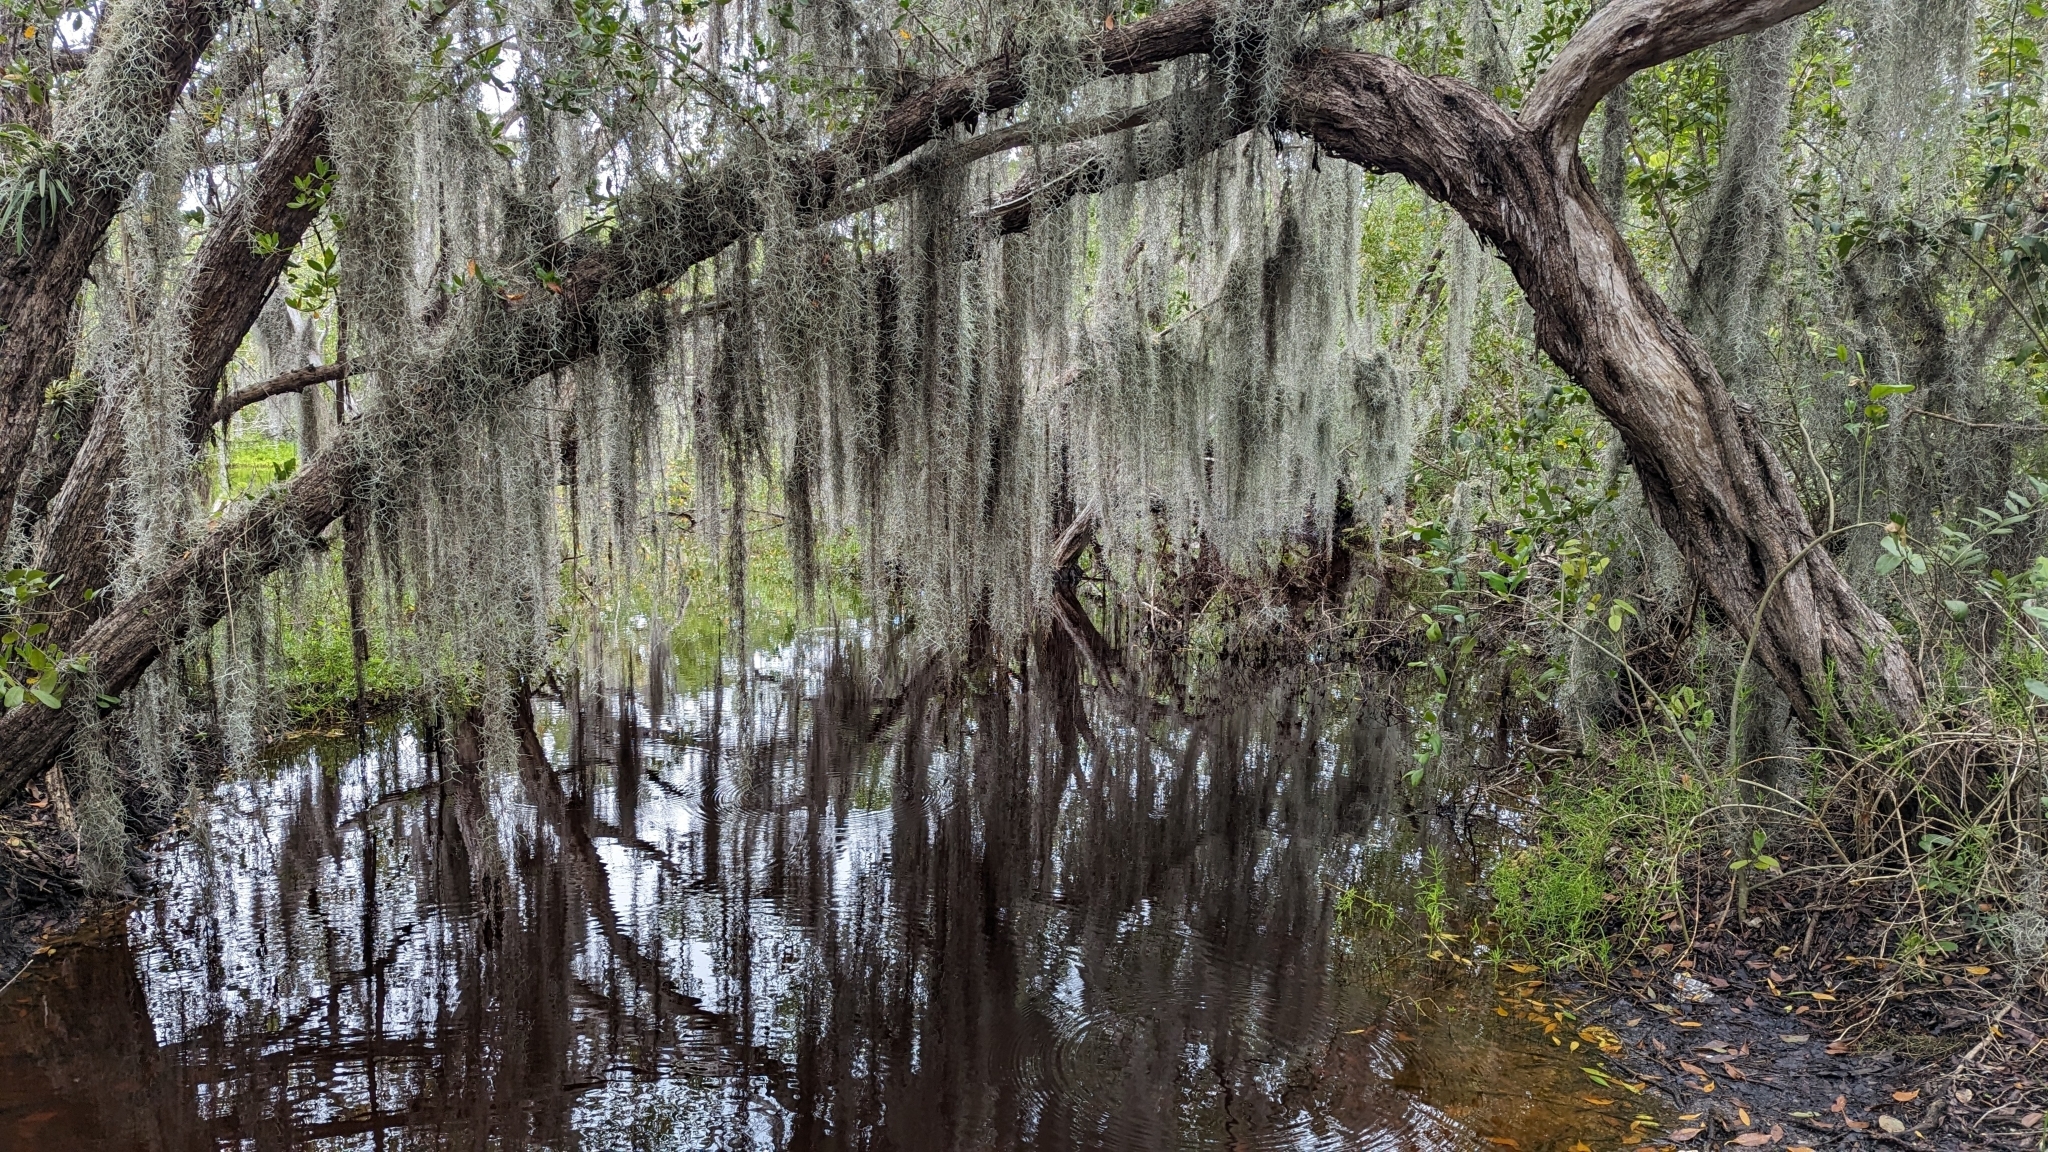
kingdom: Plantae
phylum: Tracheophyta
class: Liliopsida
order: Poales
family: Bromeliaceae
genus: Tillandsia
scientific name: Tillandsia usneoides
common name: Spanish moss
